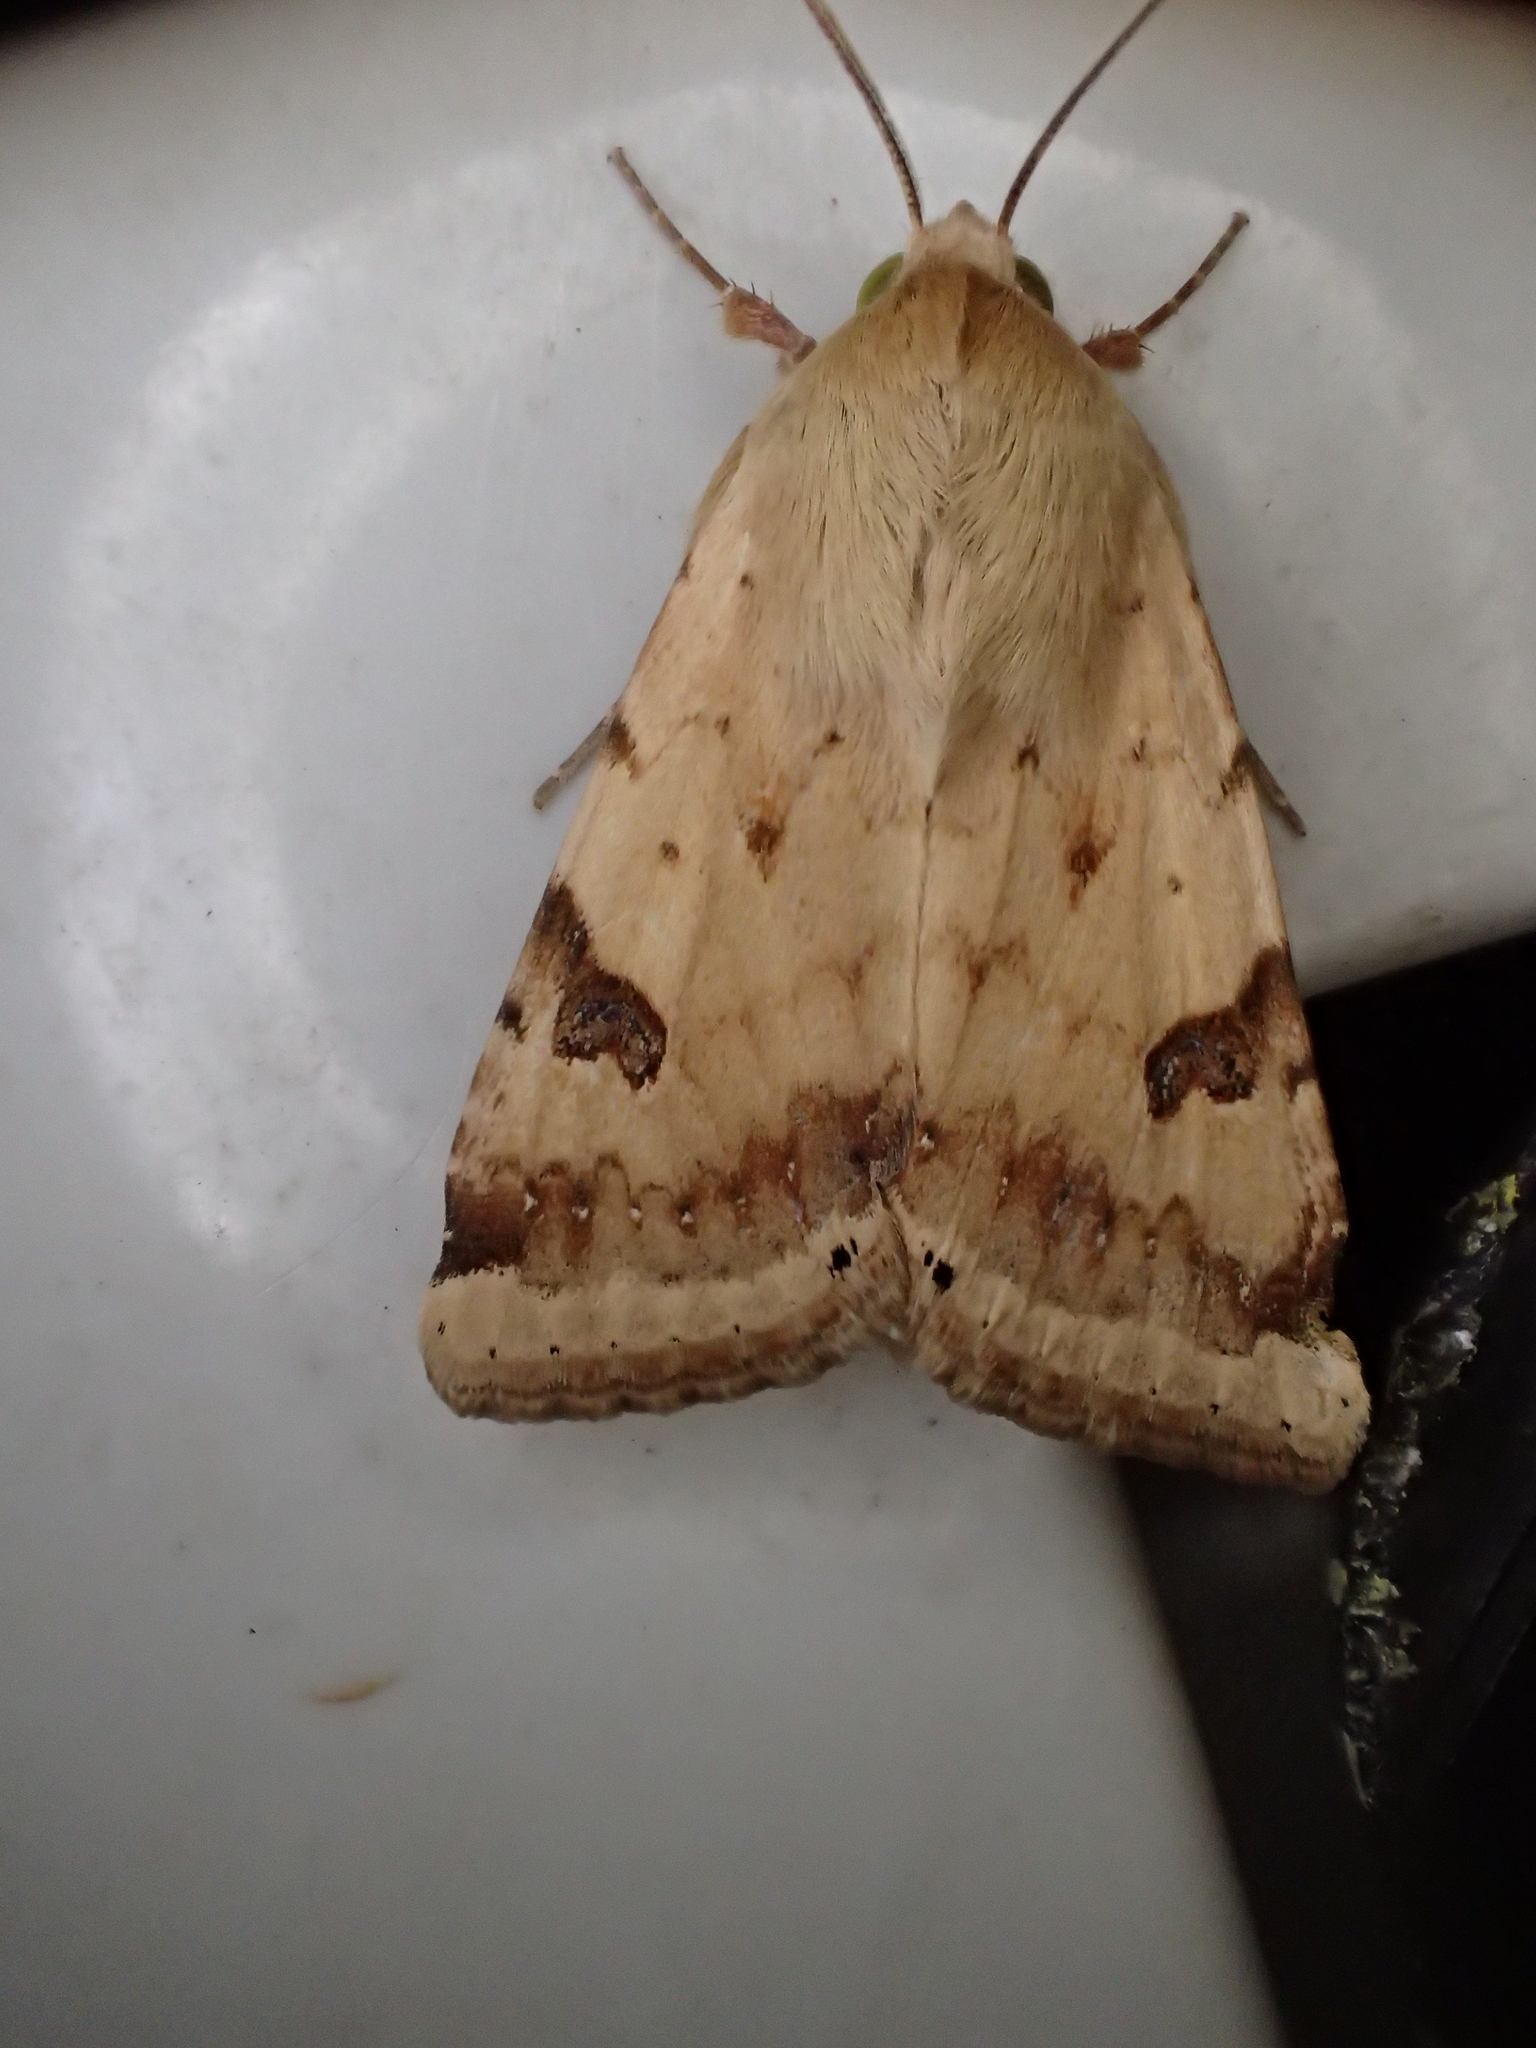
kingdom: Animalia
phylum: Arthropoda
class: Insecta
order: Lepidoptera
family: Noctuidae
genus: Heliothis
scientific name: Heliothis peltigera
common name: Bordered straw
